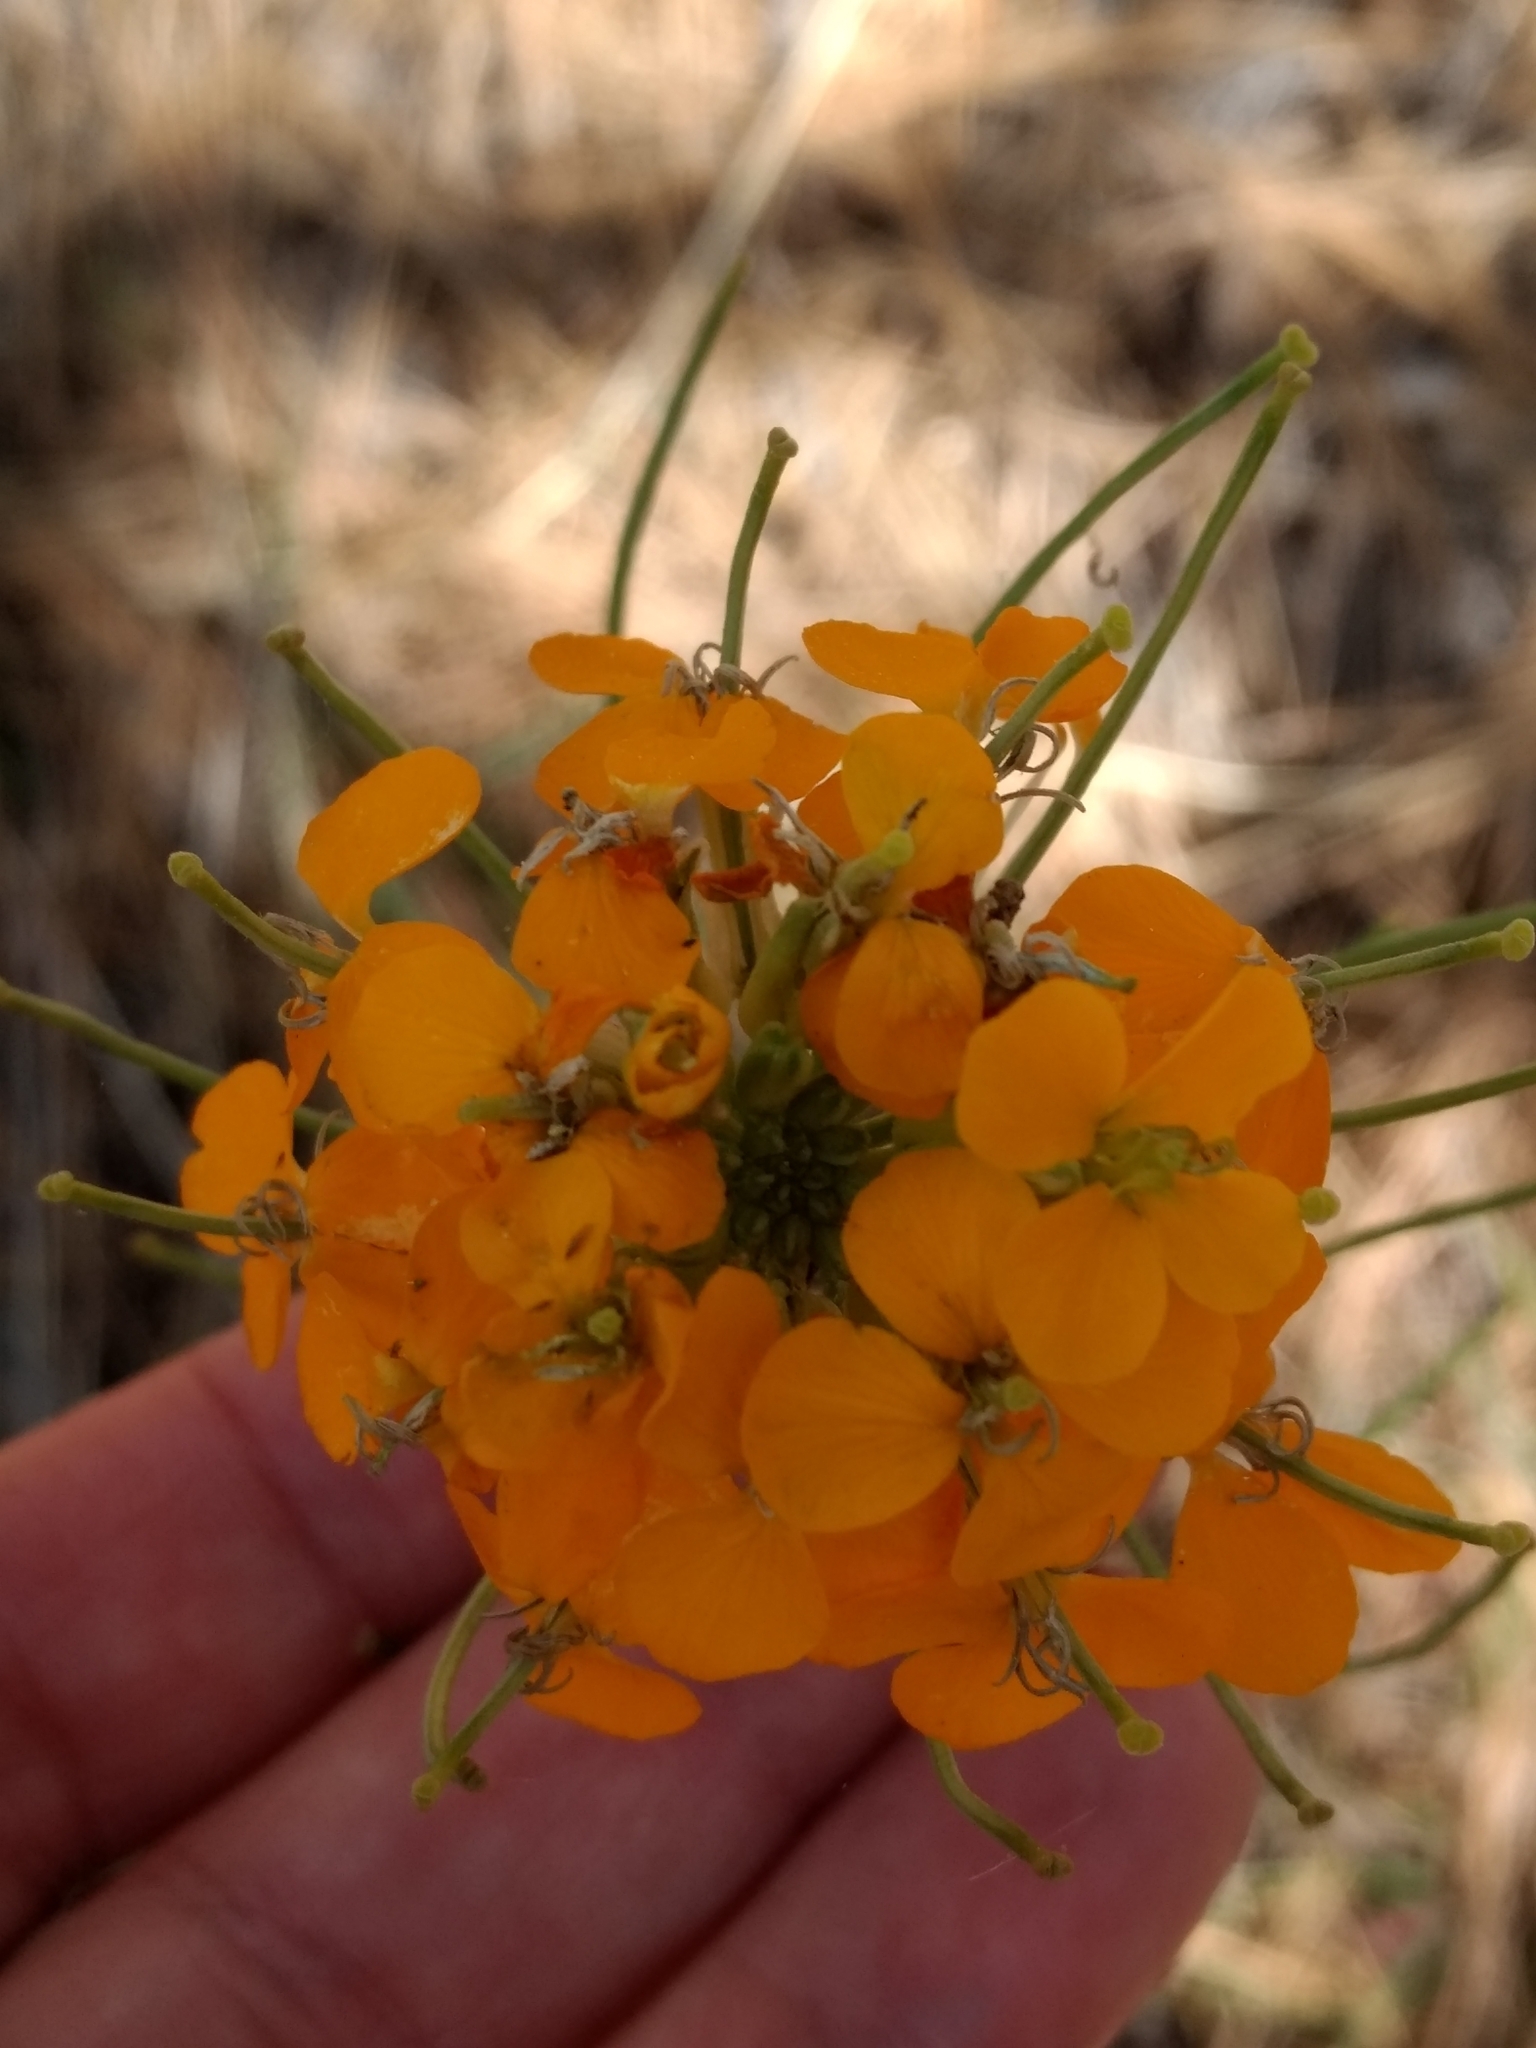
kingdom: Plantae
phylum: Tracheophyta
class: Magnoliopsida
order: Brassicales
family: Brassicaceae
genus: Erysimum
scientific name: Erysimum capitatum
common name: Western wallflower
